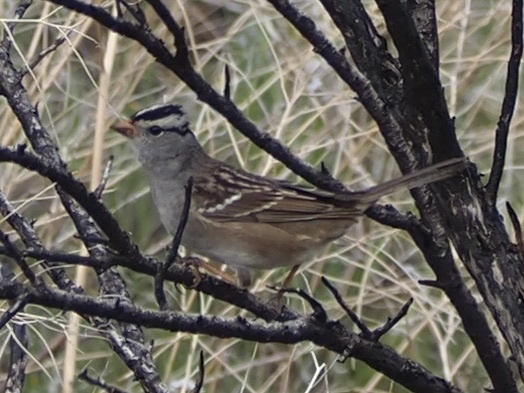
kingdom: Animalia
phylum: Chordata
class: Aves
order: Passeriformes
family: Passerellidae
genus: Zonotrichia
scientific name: Zonotrichia leucophrys
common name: White-crowned sparrow
